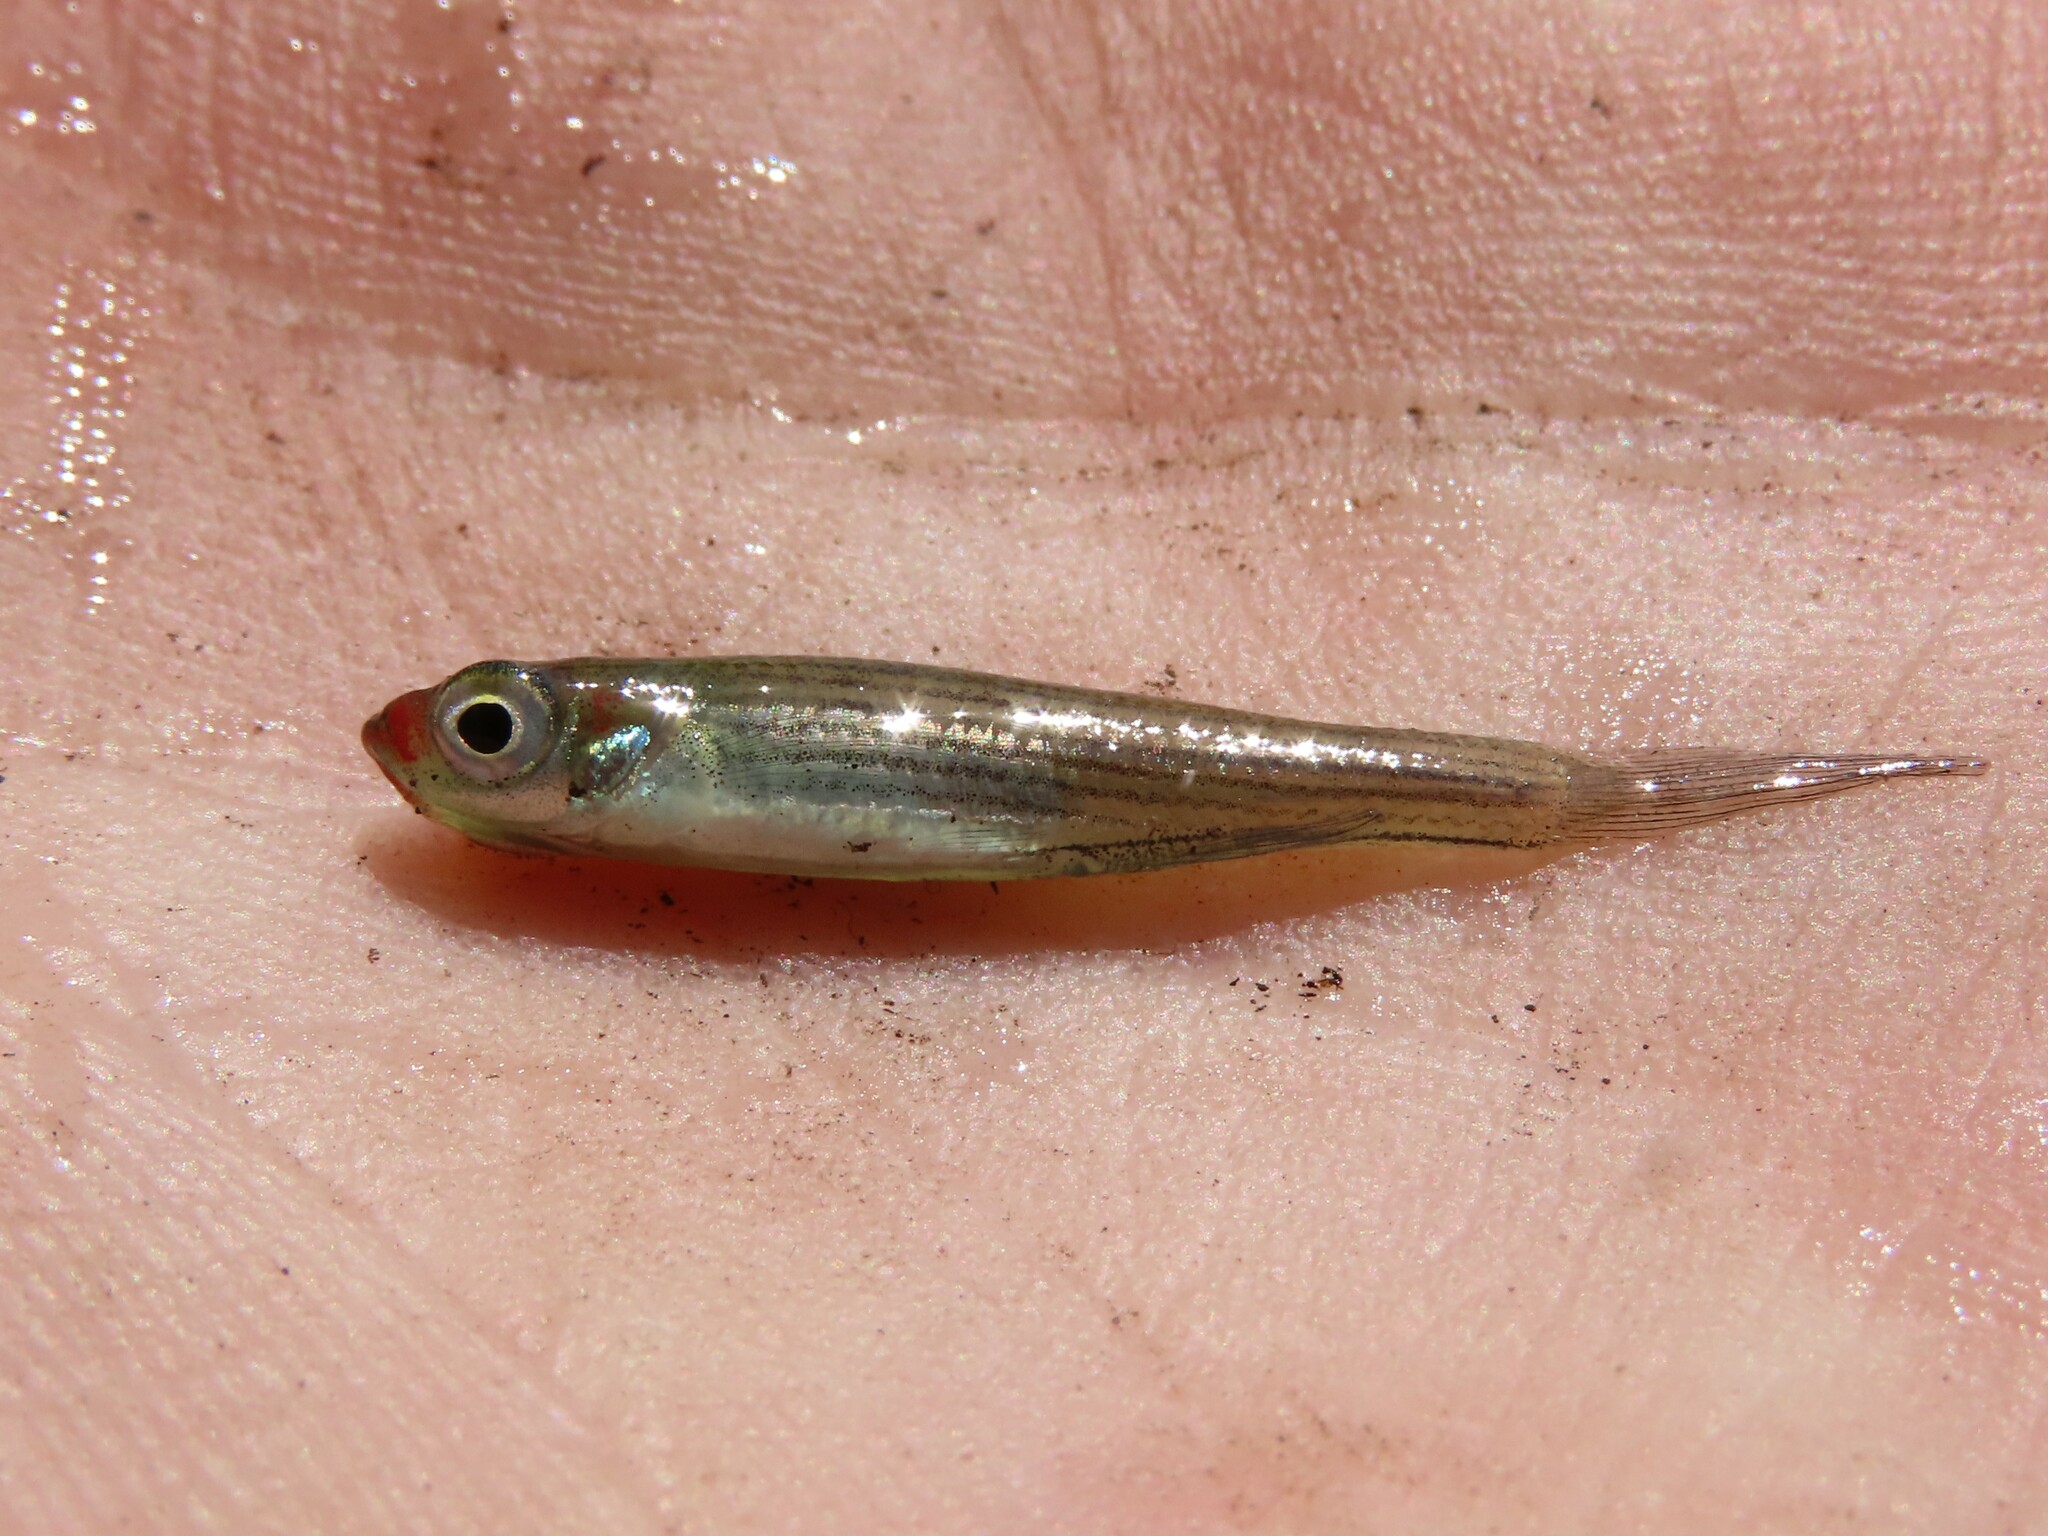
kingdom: Animalia
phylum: Chordata
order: Cyprinodontiformes
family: Fundulidae
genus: Fundulus
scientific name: Fundulus lineolatus
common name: Lined topminnow
